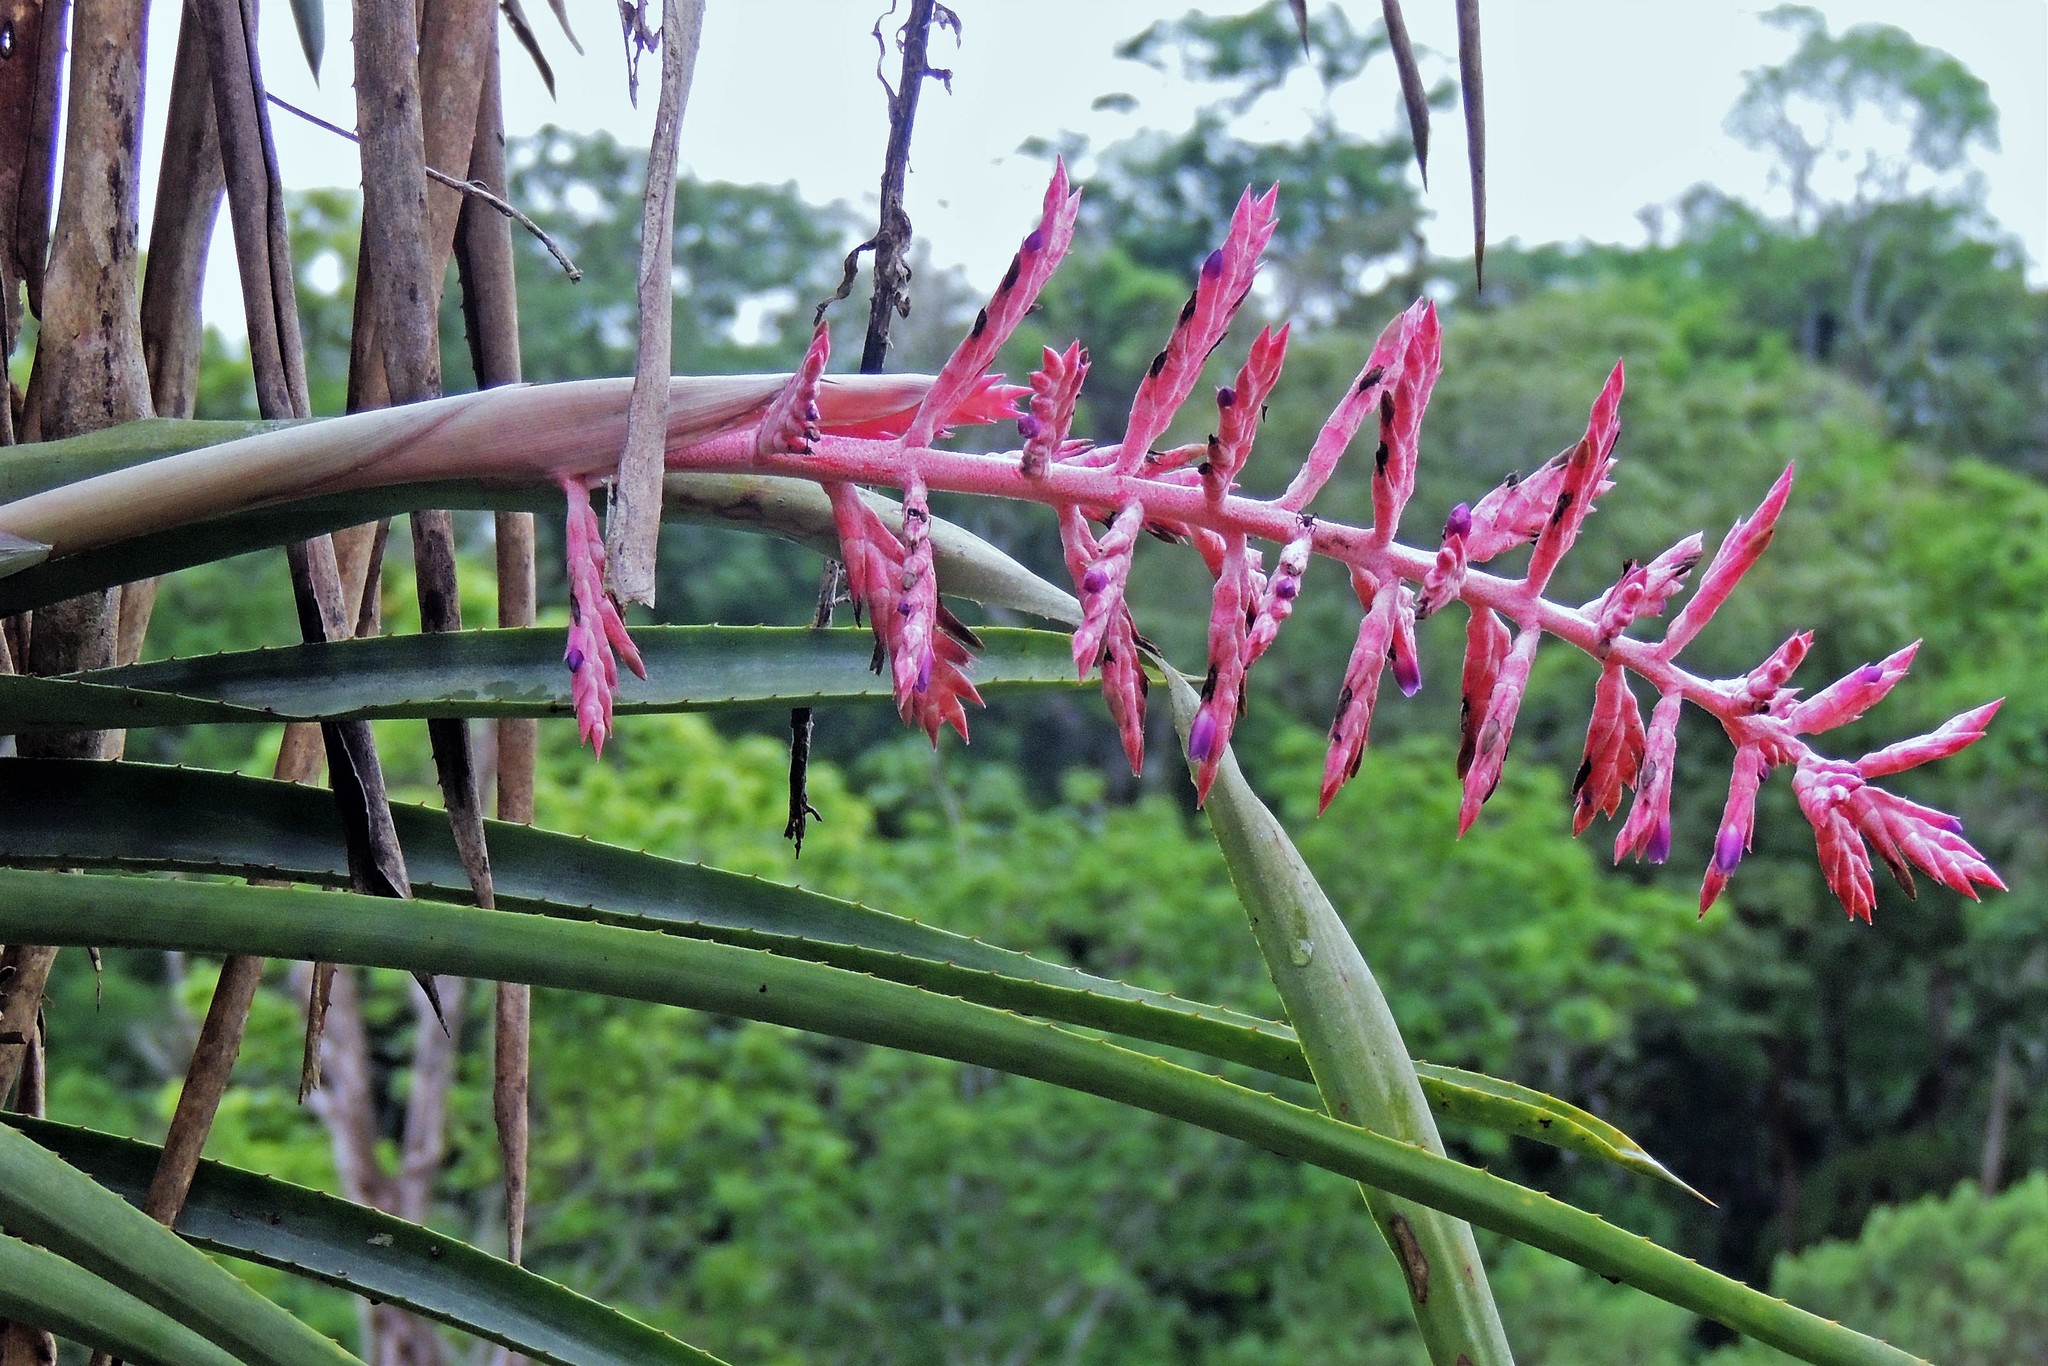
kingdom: Plantae
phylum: Tracheophyta
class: Liliopsida
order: Poales
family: Bromeliaceae
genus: Aechmea
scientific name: Aechmea distichantha
